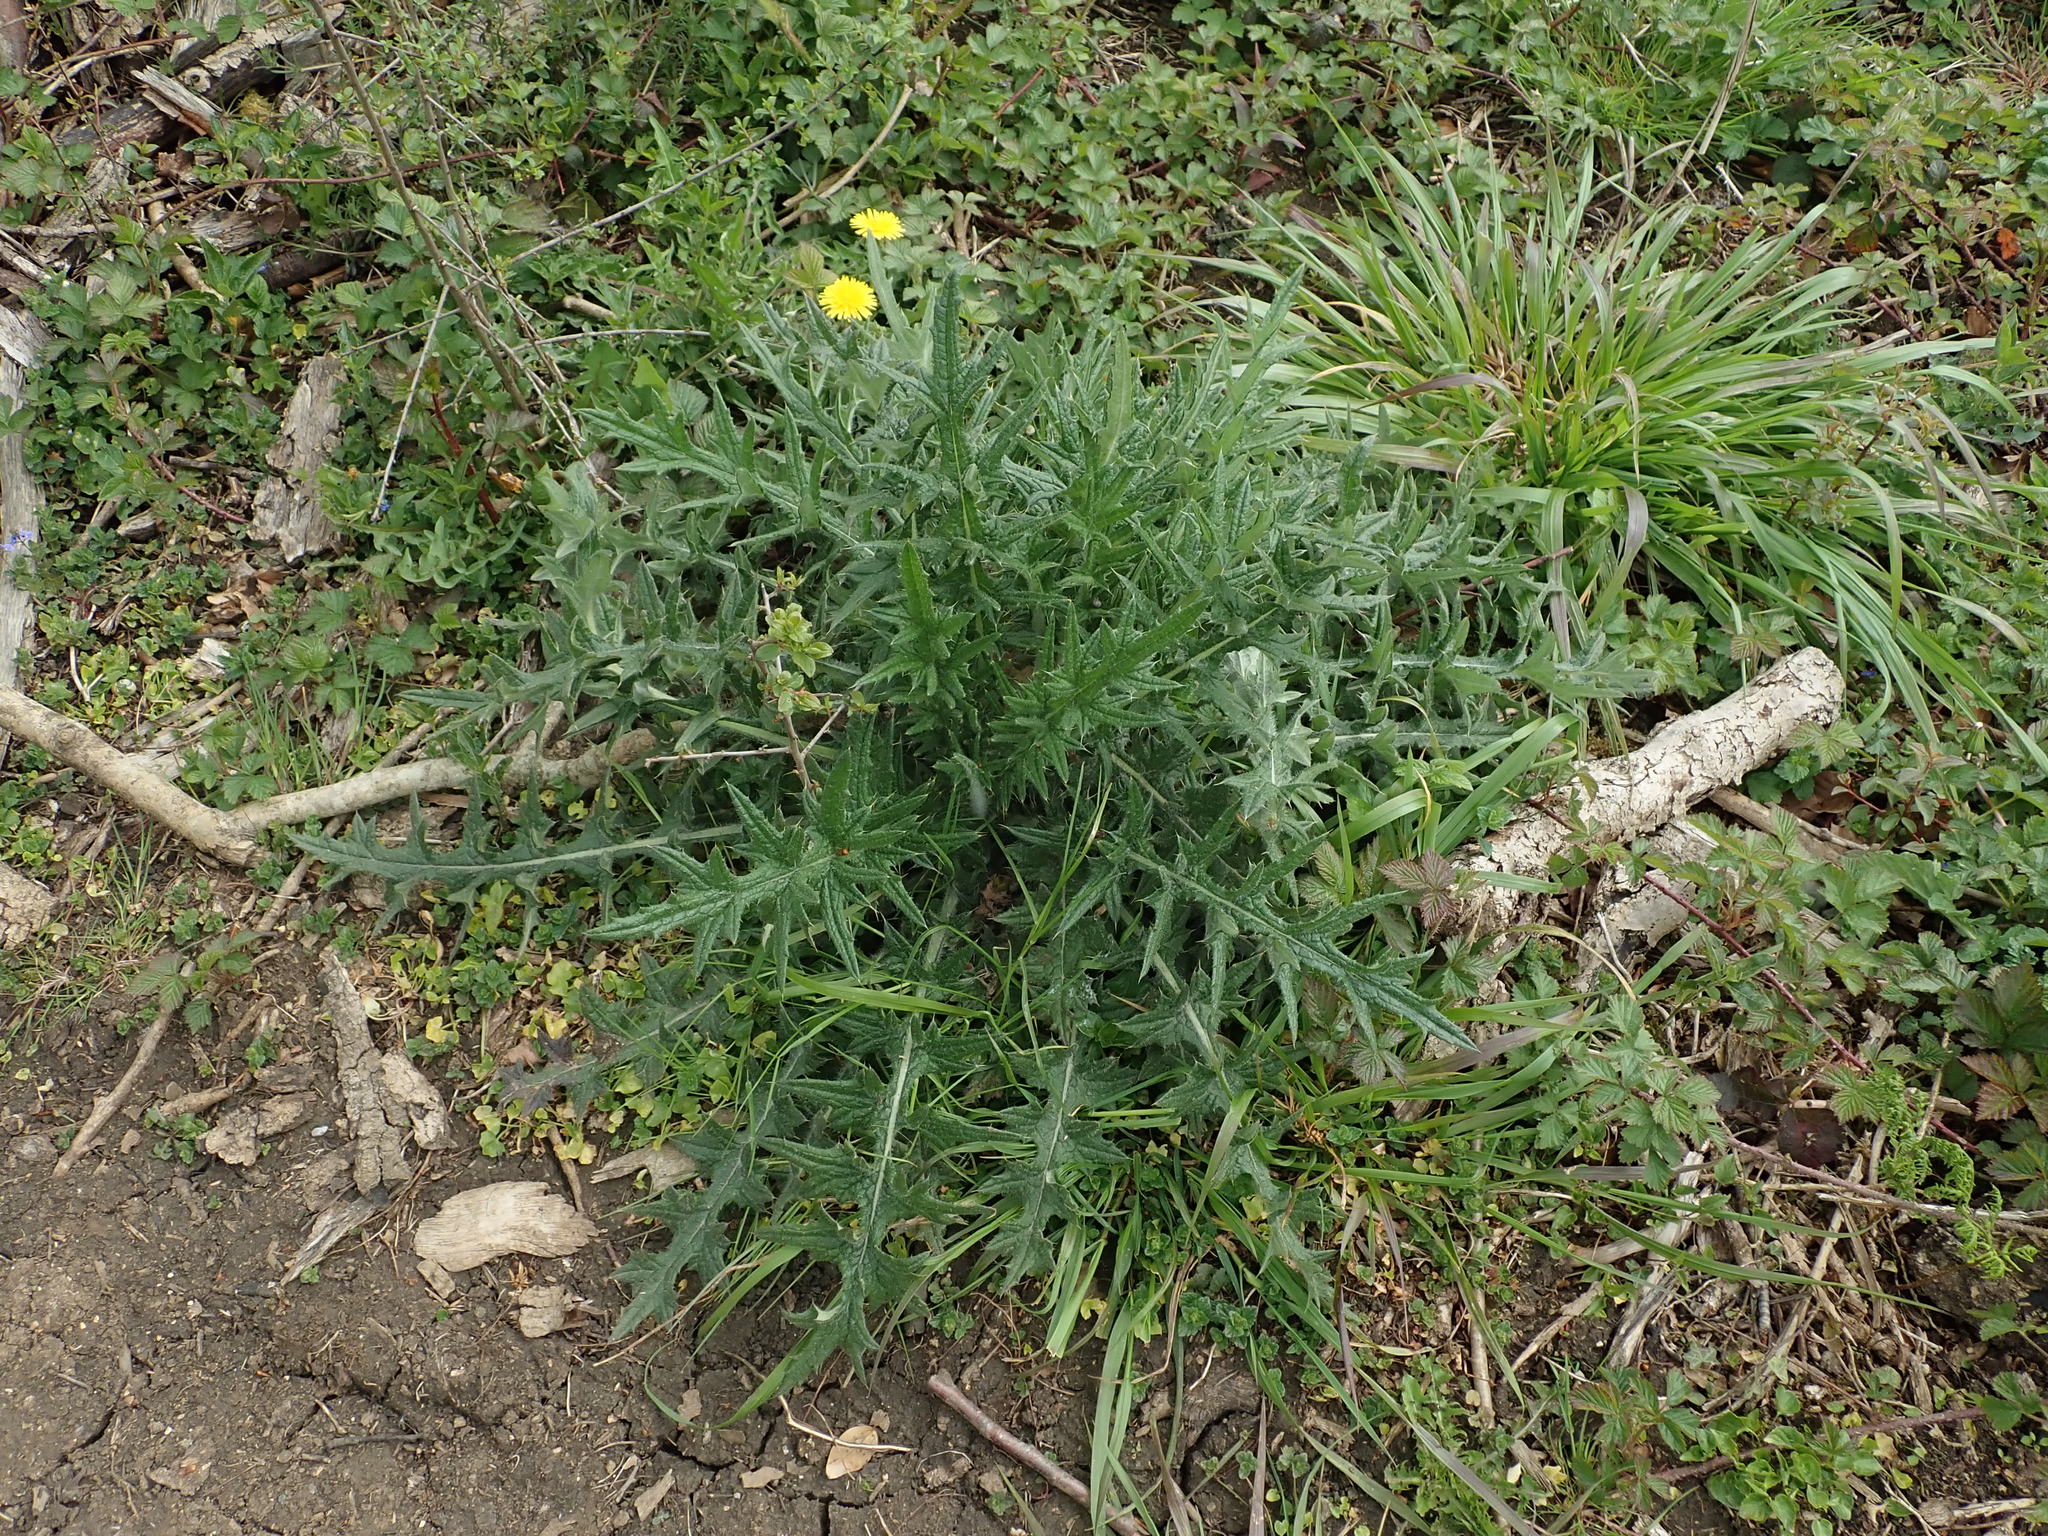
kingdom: Plantae
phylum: Tracheophyta
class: Magnoliopsida
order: Asterales
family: Asteraceae
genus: Cirsium
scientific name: Cirsium vulgare
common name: Bull thistle
